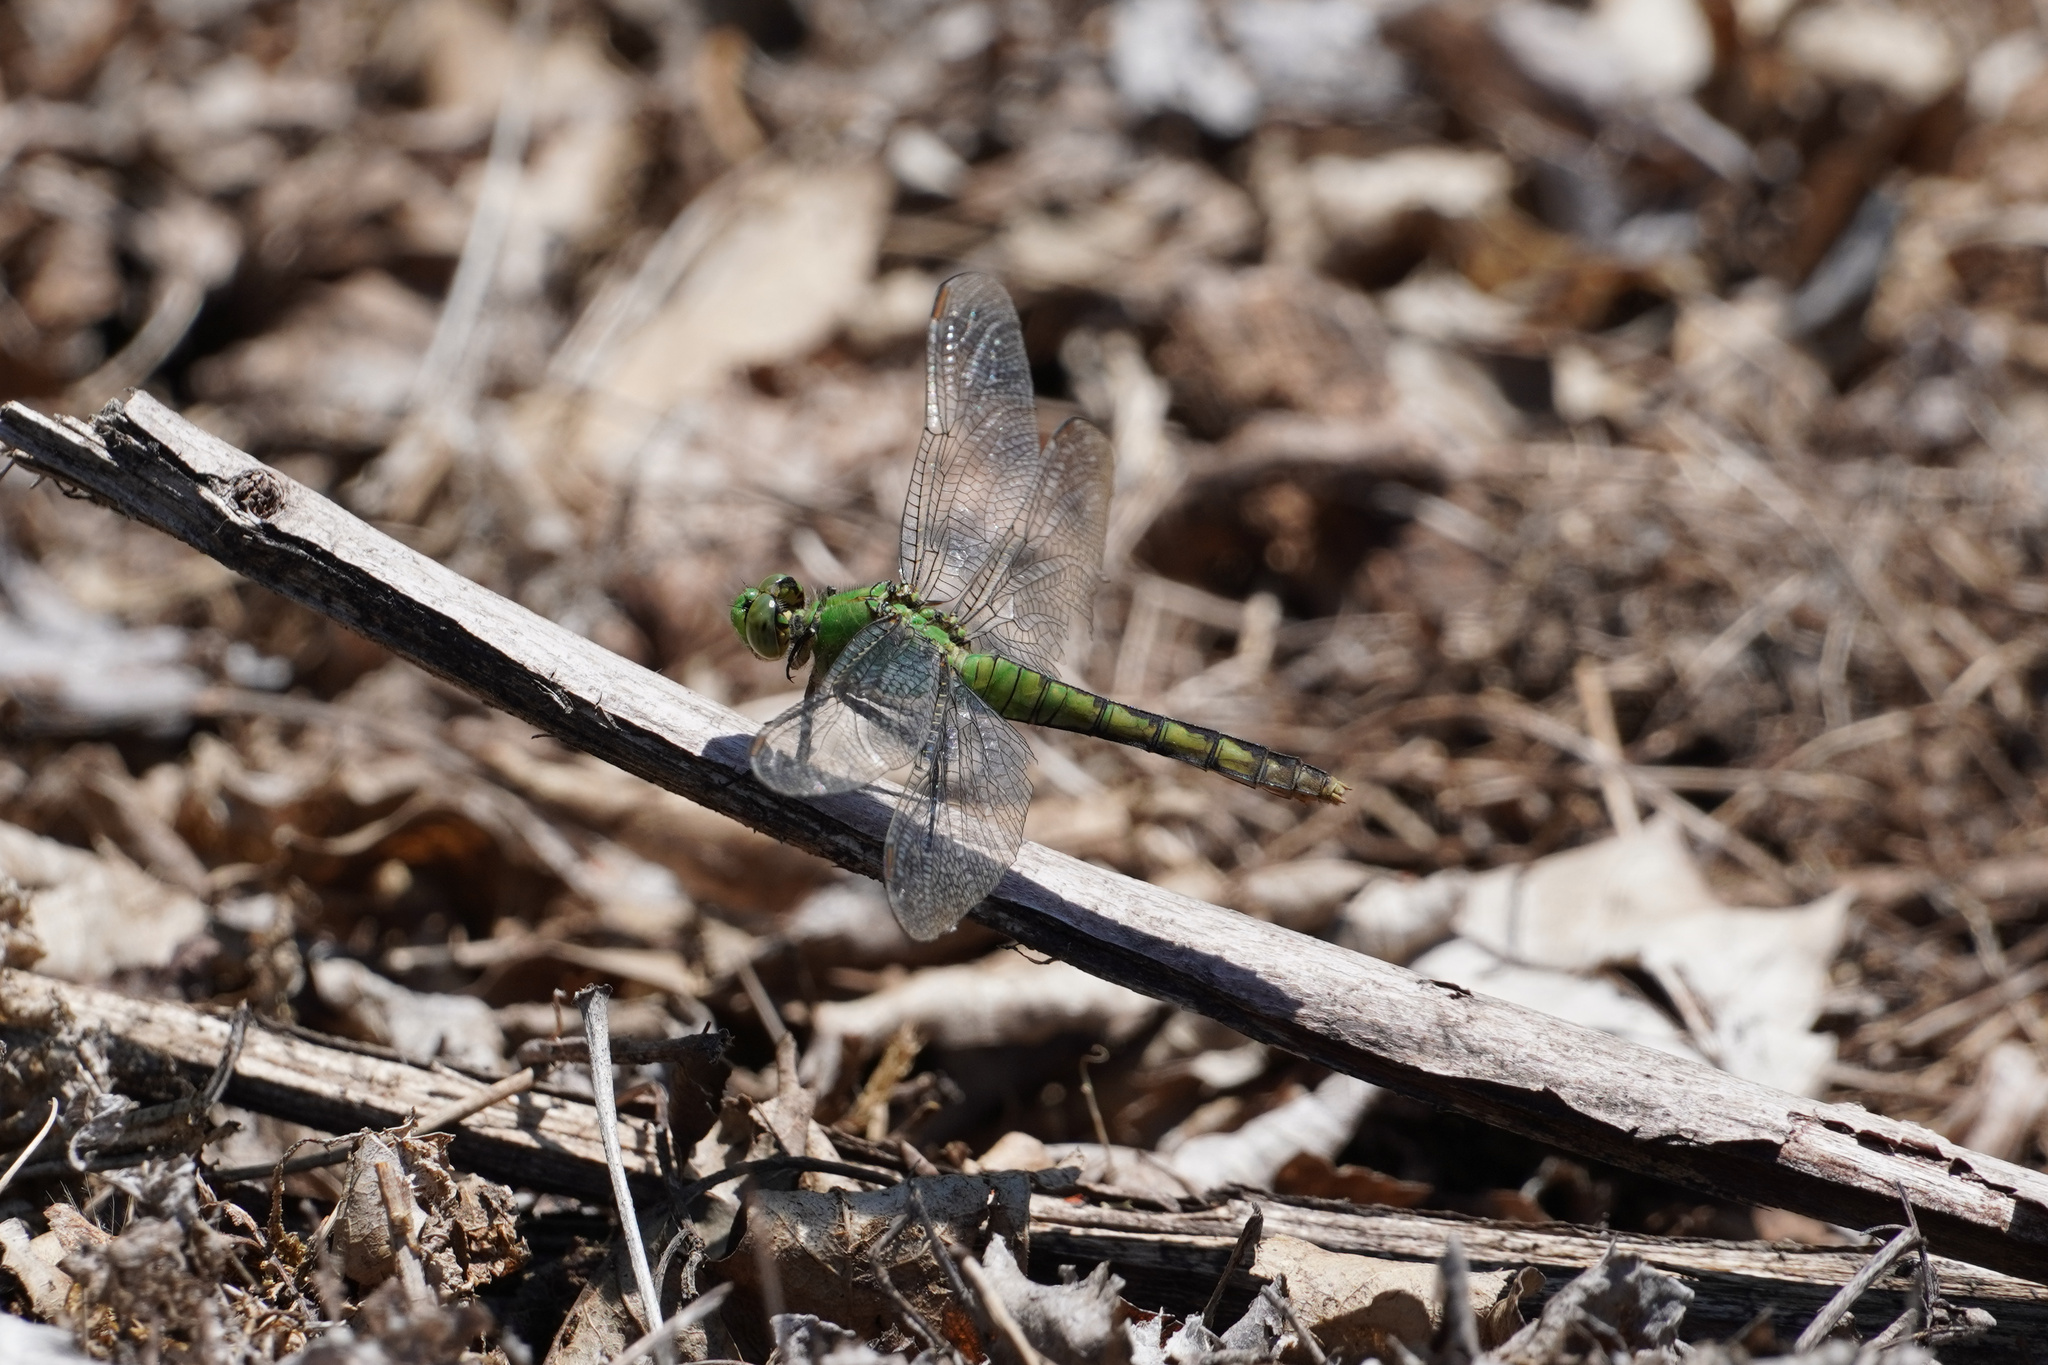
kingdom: Animalia
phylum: Arthropoda
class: Insecta
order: Odonata
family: Libellulidae
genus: Erythemis
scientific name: Erythemis collocata
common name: Western pondhawk
